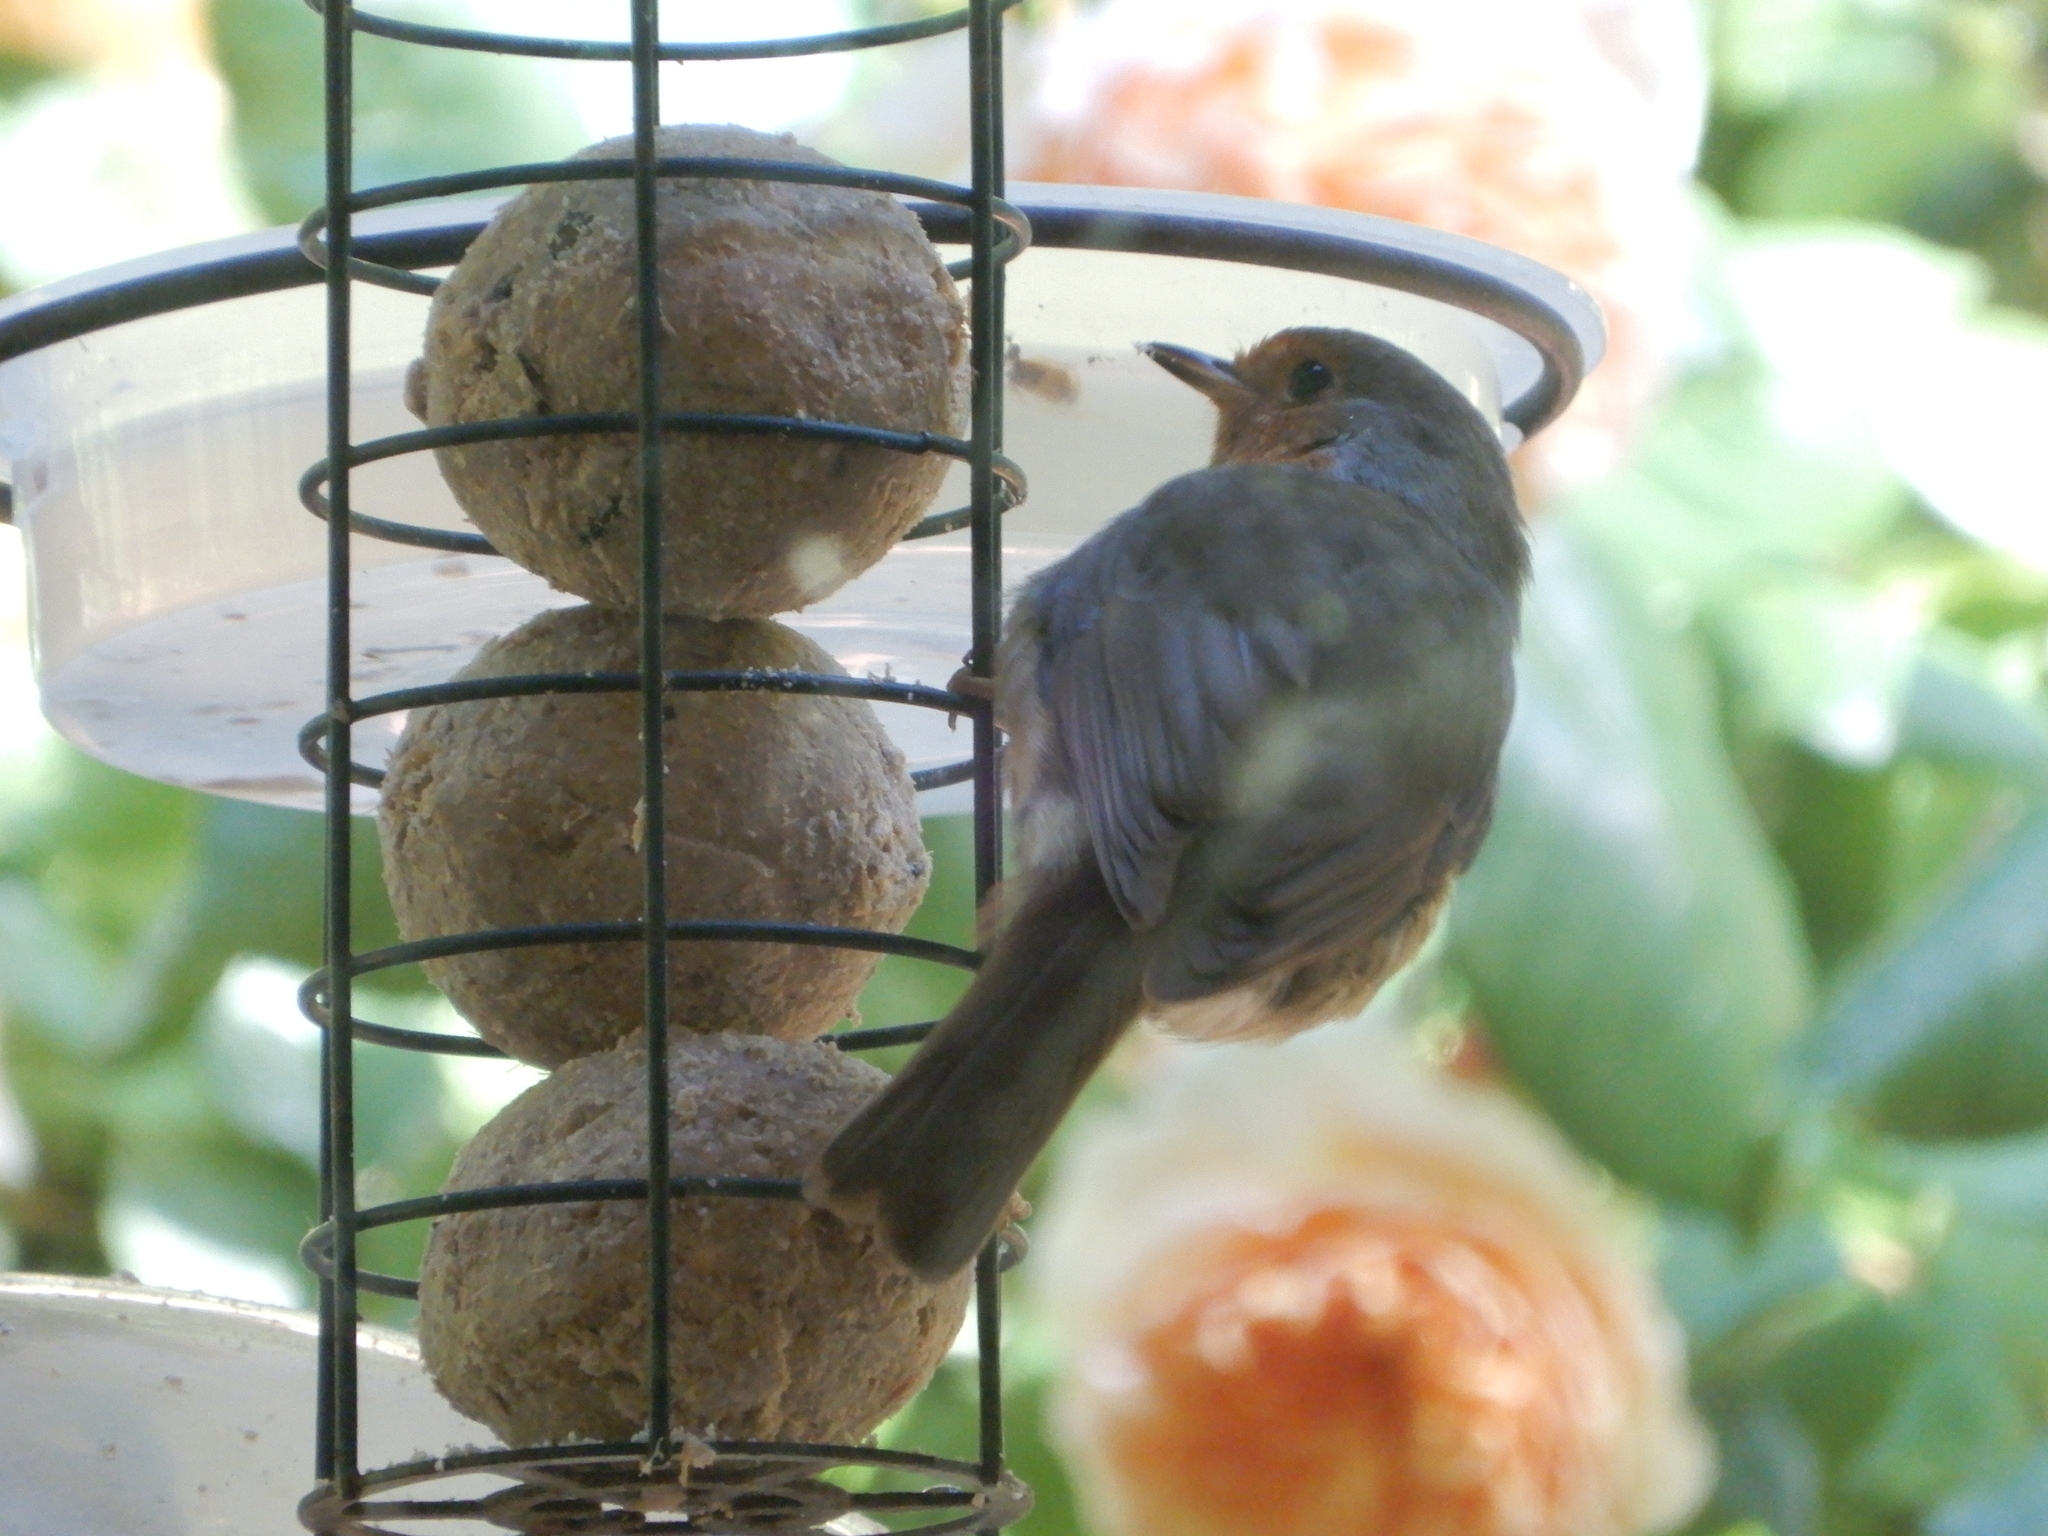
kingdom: Animalia
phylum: Chordata
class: Aves
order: Passeriformes
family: Muscicapidae
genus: Erithacus
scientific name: Erithacus rubecula
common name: European robin
